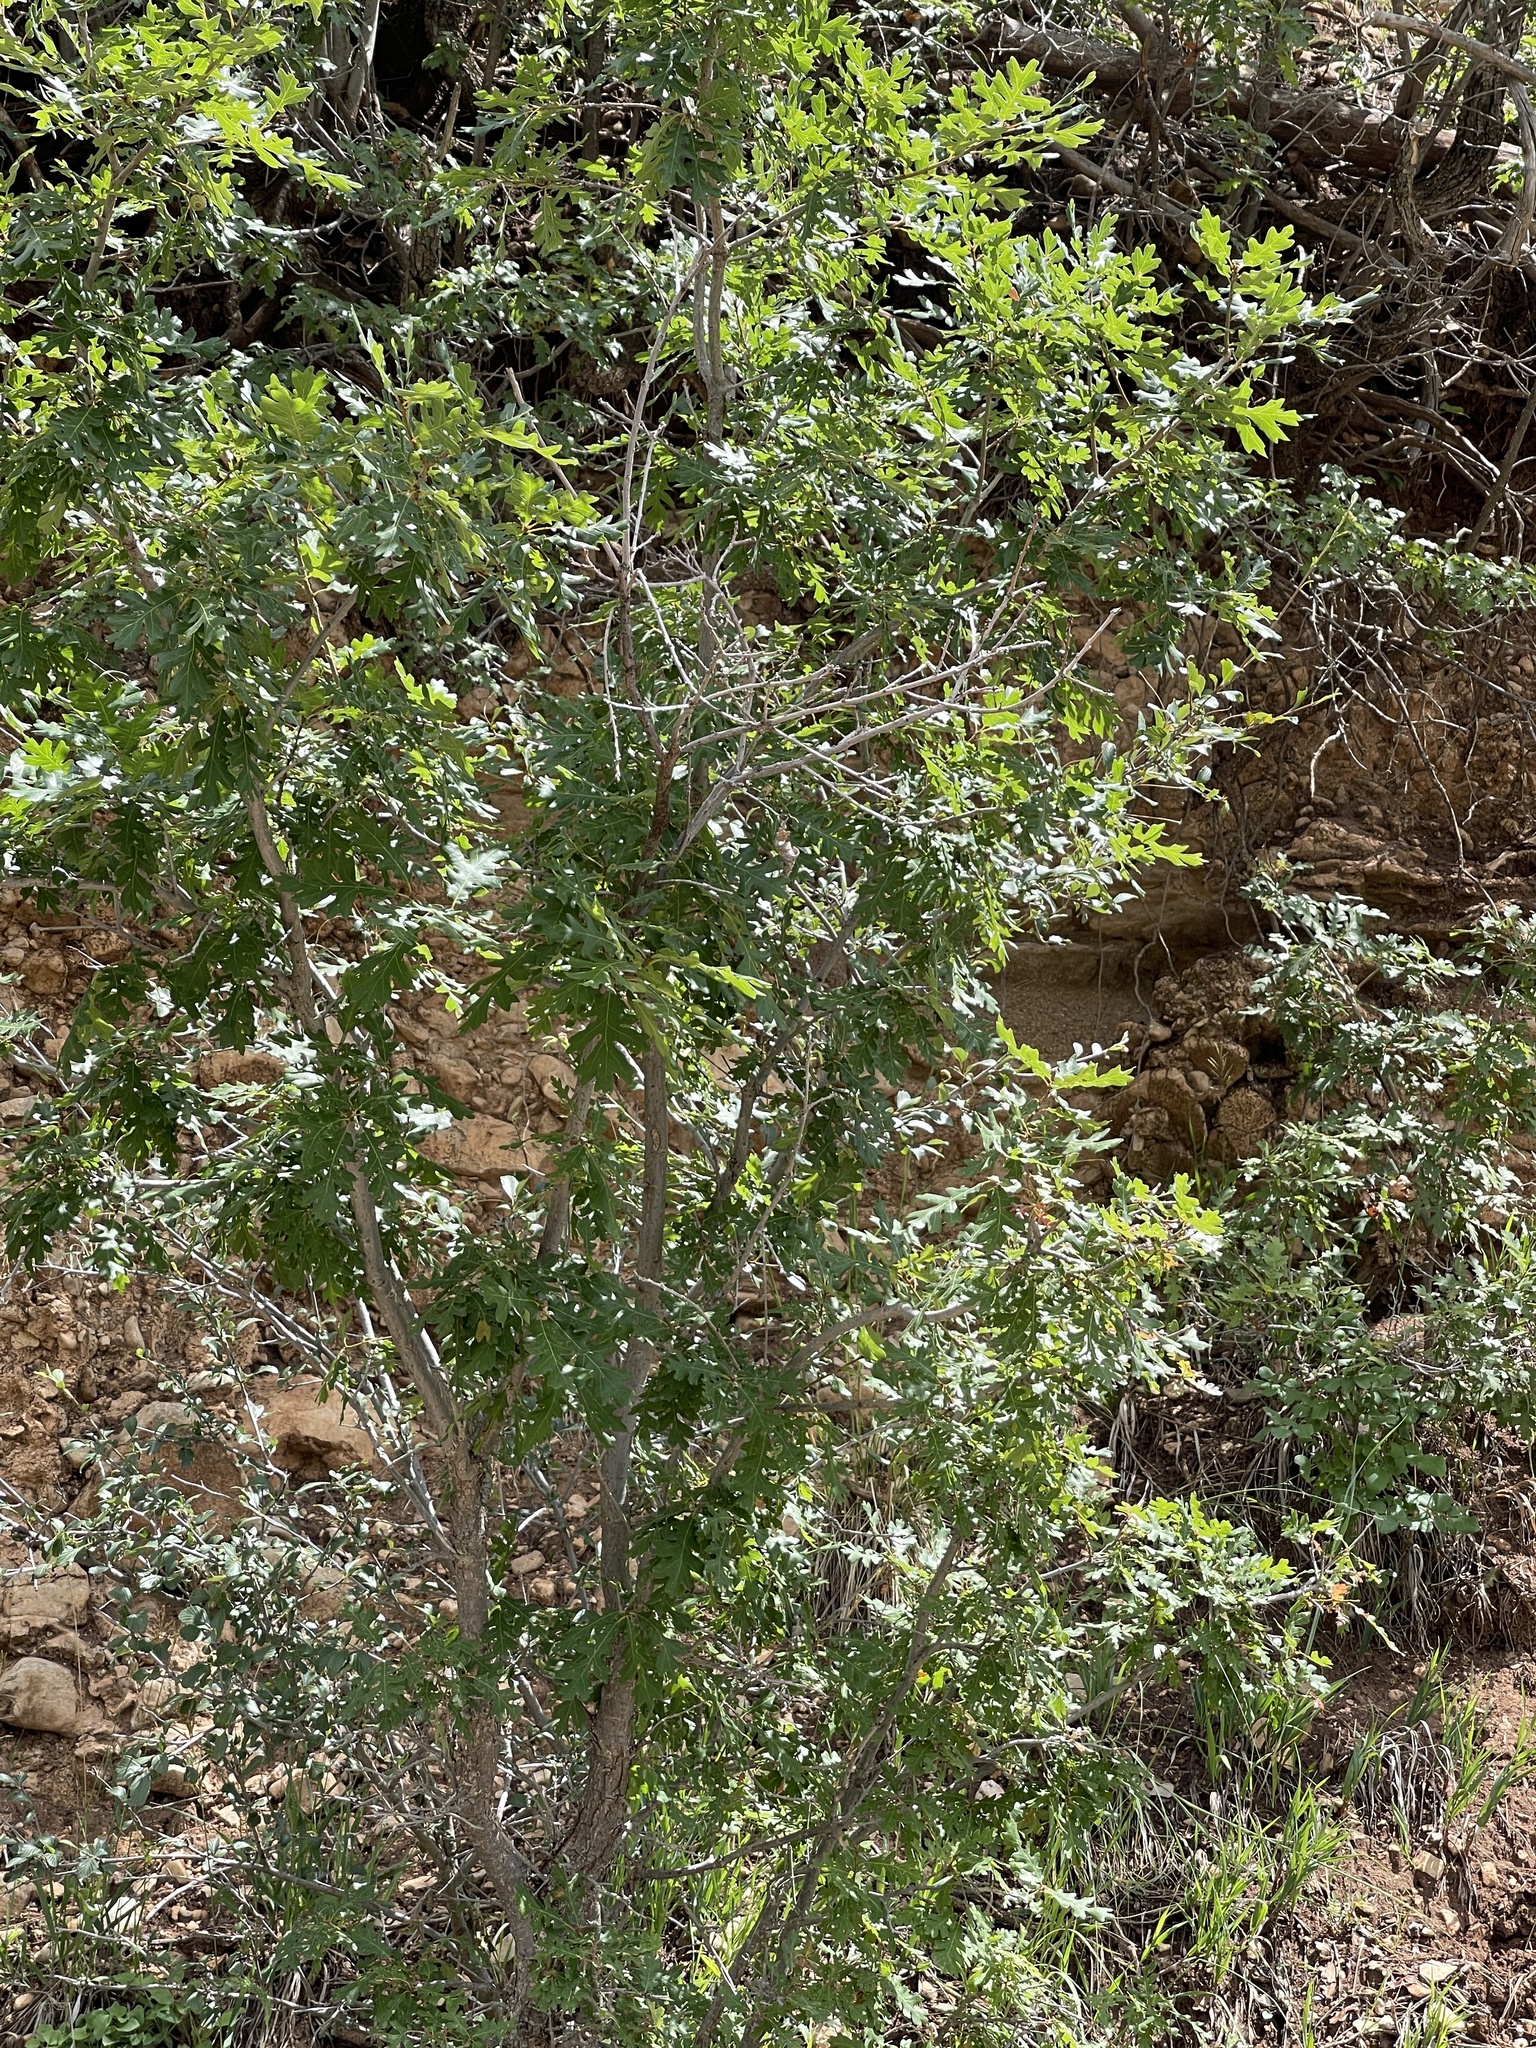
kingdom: Plantae
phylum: Tracheophyta
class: Magnoliopsida
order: Fagales
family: Fagaceae
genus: Quercus
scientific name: Quercus gambelii
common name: Gambel oak
